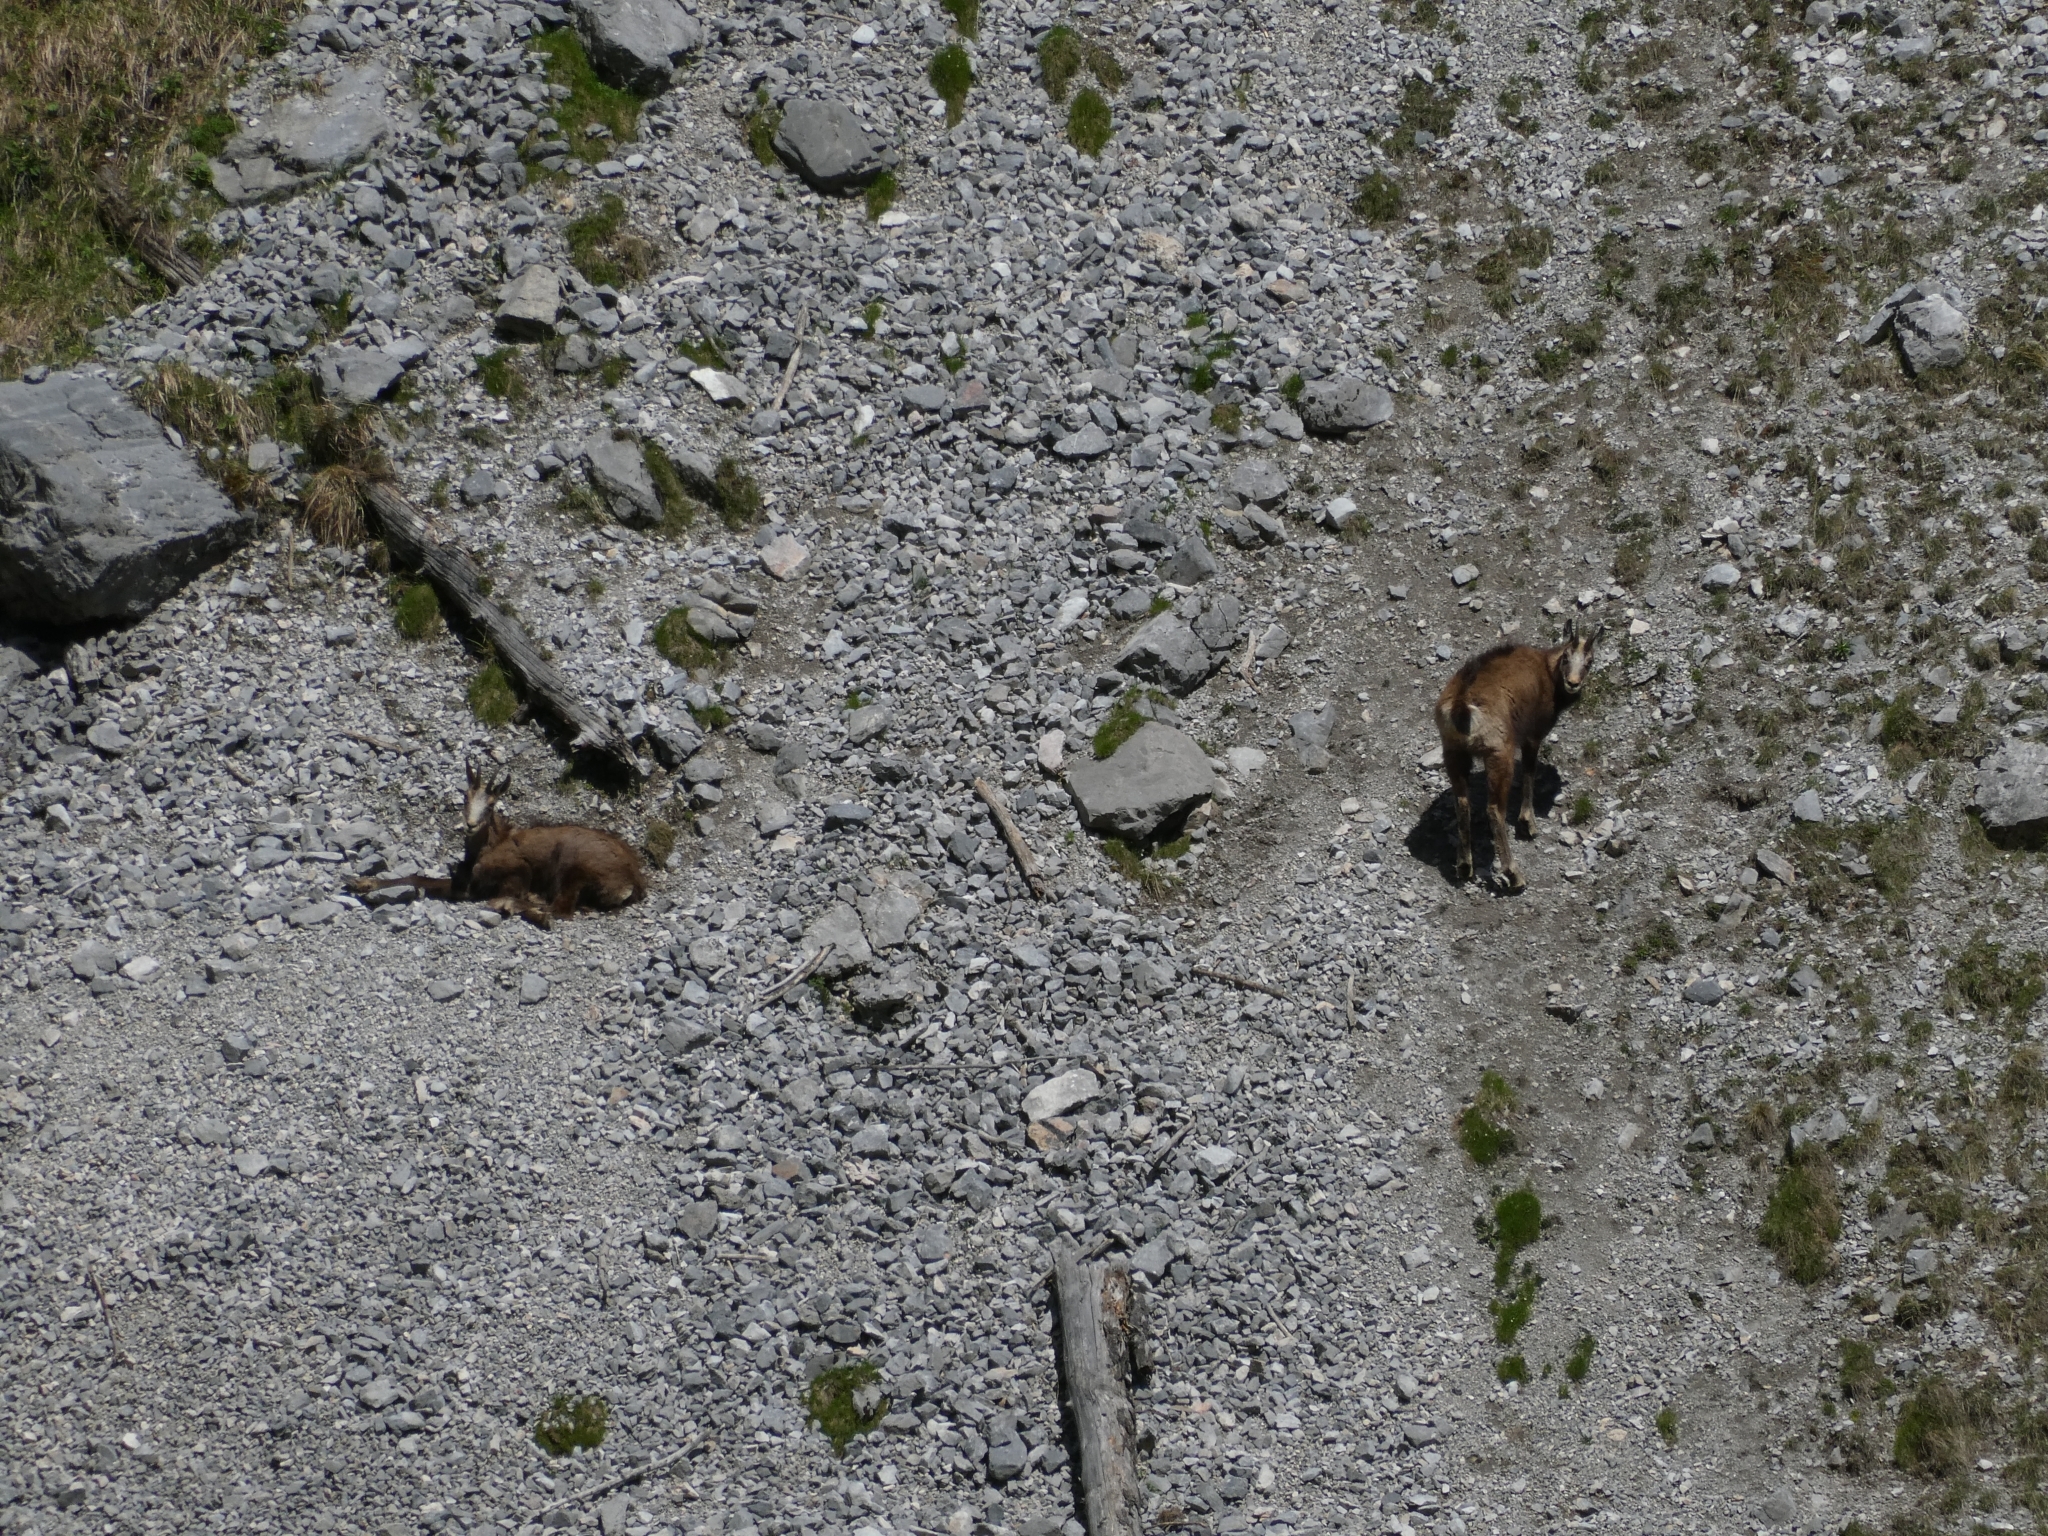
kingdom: Animalia
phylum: Chordata
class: Mammalia
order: Artiodactyla
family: Bovidae
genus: Rupicapra
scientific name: Rupicapra rupicapra
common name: Chamois
